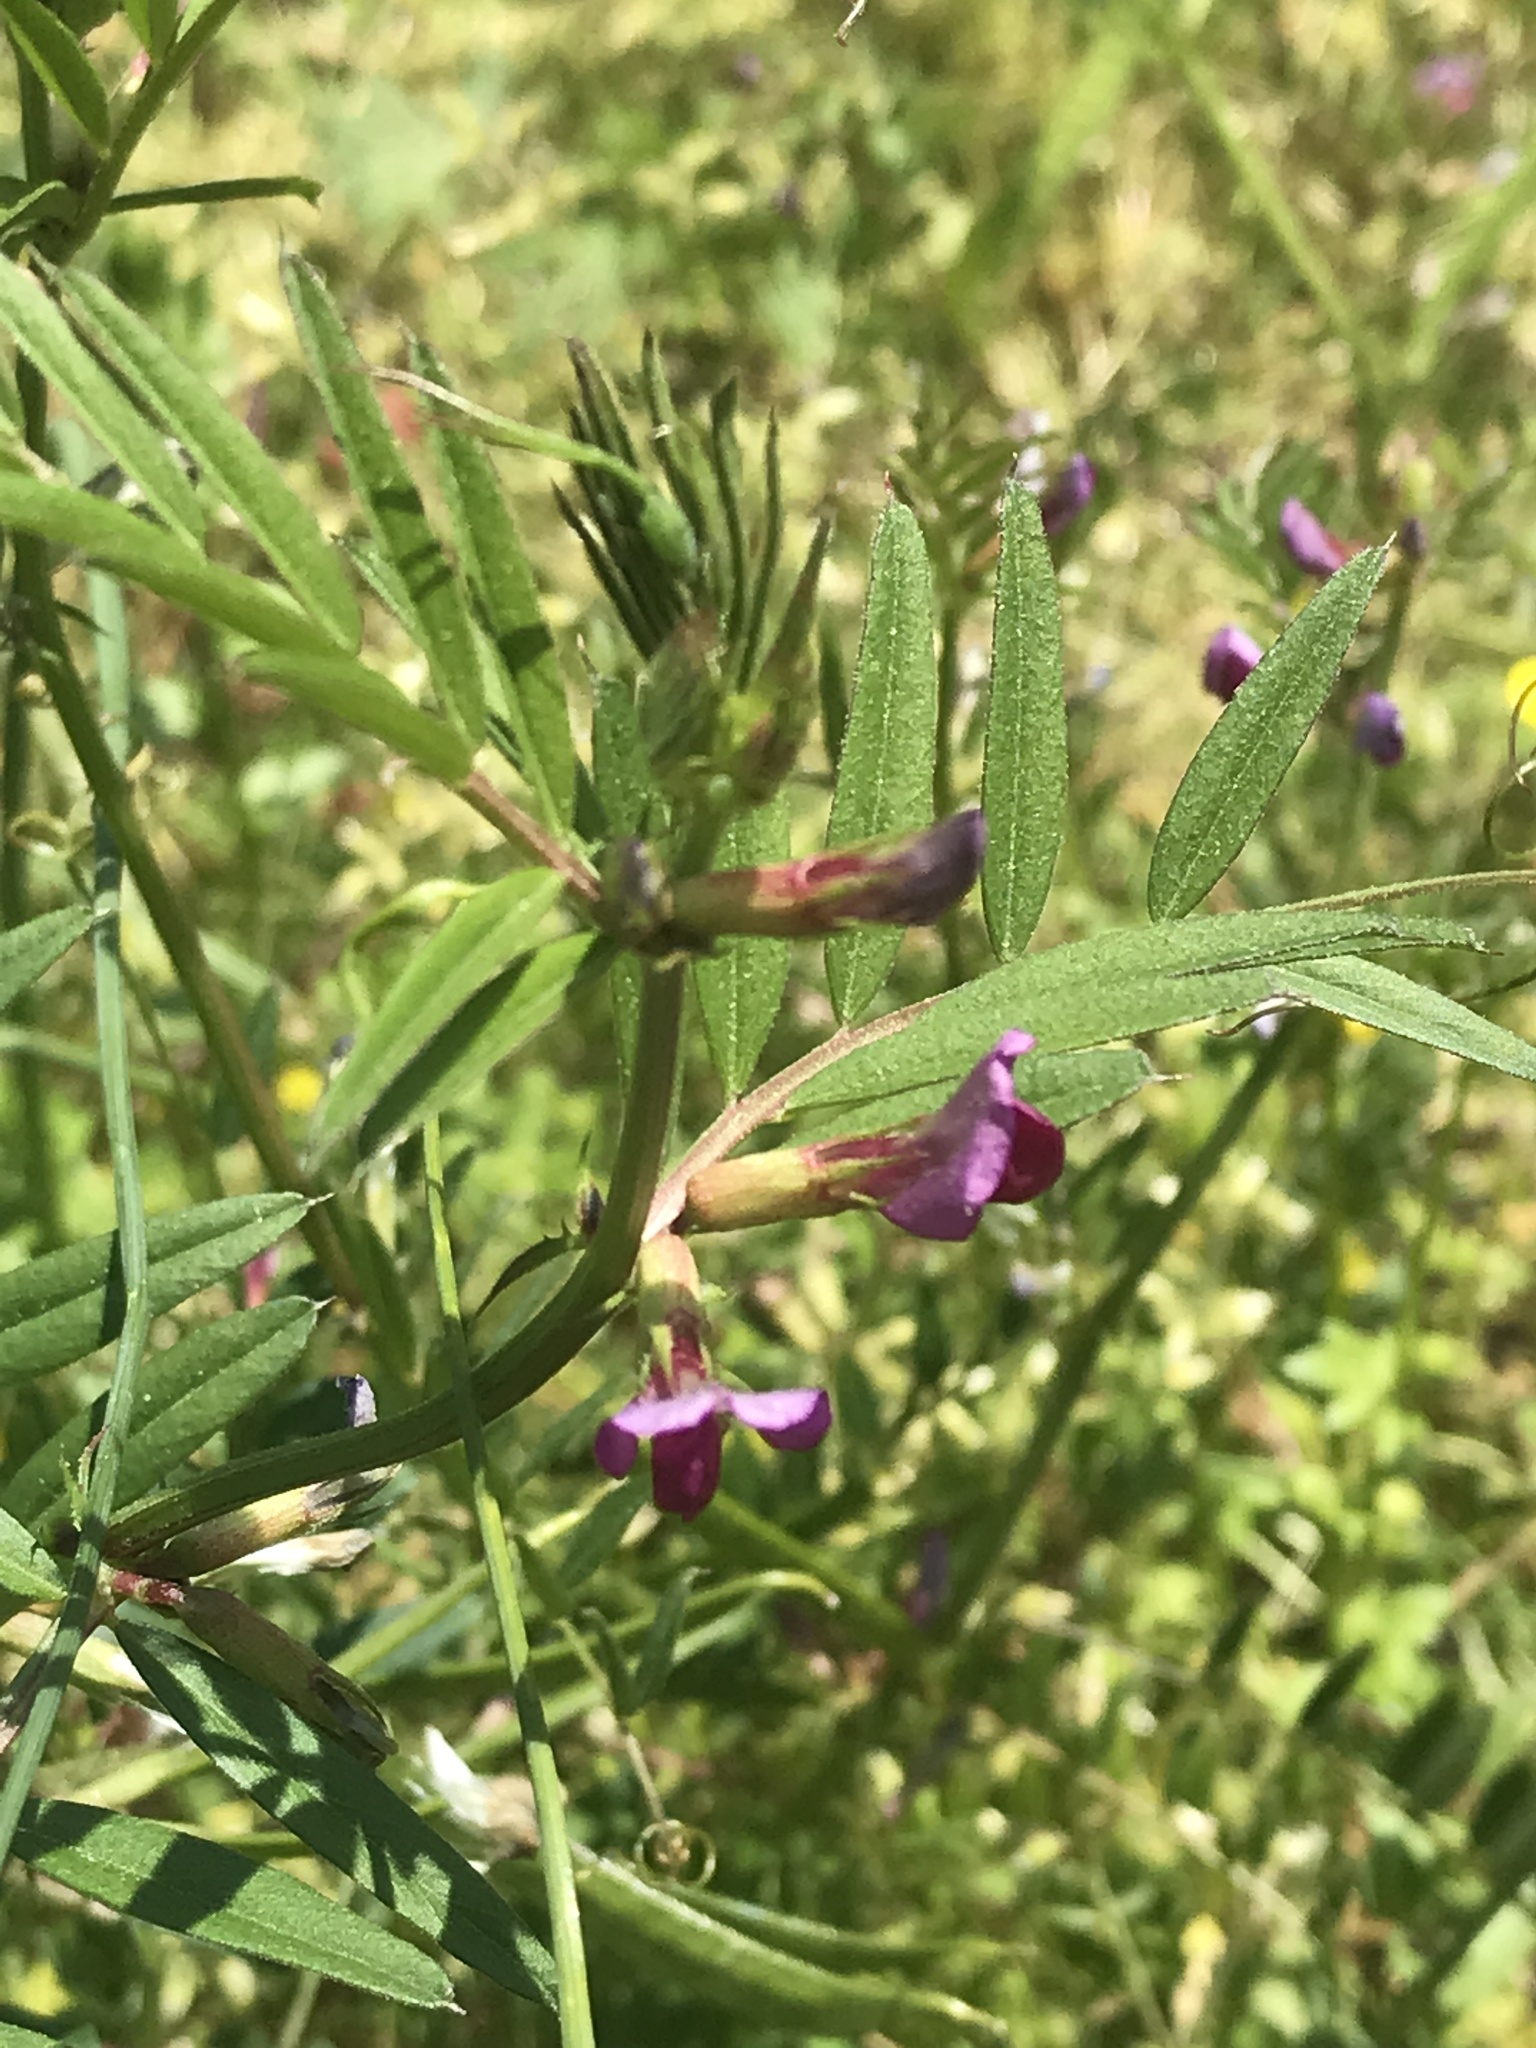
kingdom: Plantae
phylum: Tracheophyta
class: Magnoliopsida
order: Fabales
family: Fabaceae
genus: Vicia
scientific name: Vicia sativa
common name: Garden vetch
